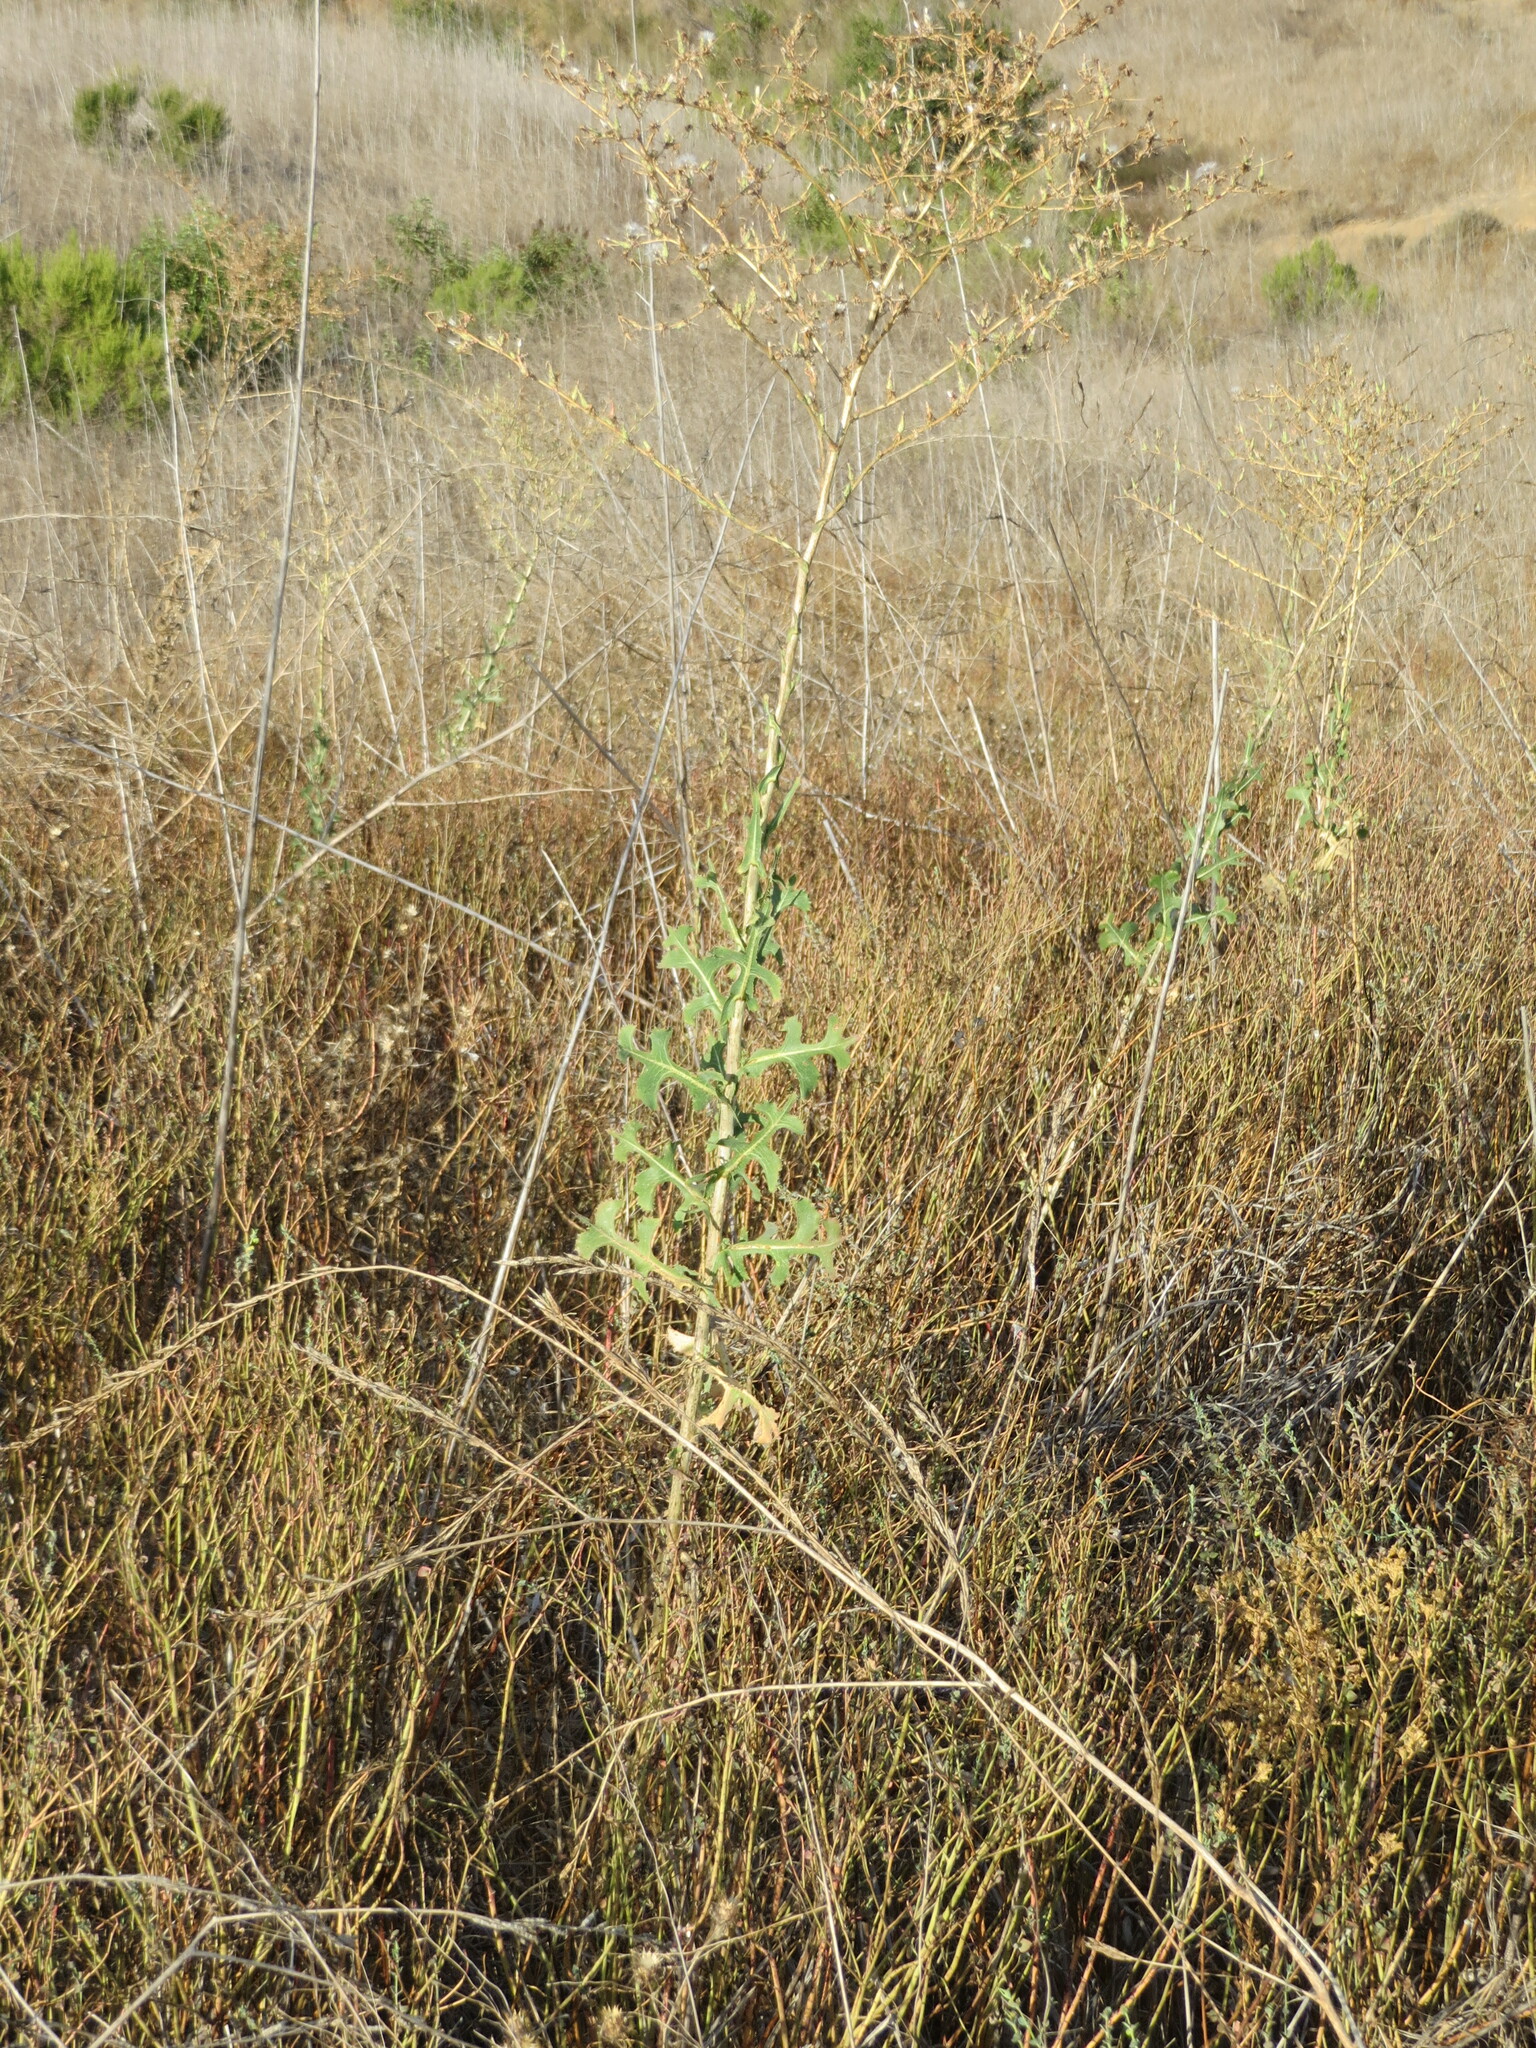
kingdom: Plantae
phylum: Tracheophyta
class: Magnoliopsida
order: Asterales
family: Asteraceae
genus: Lactuca
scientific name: Lactuca serriola
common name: Prickly lettuce
